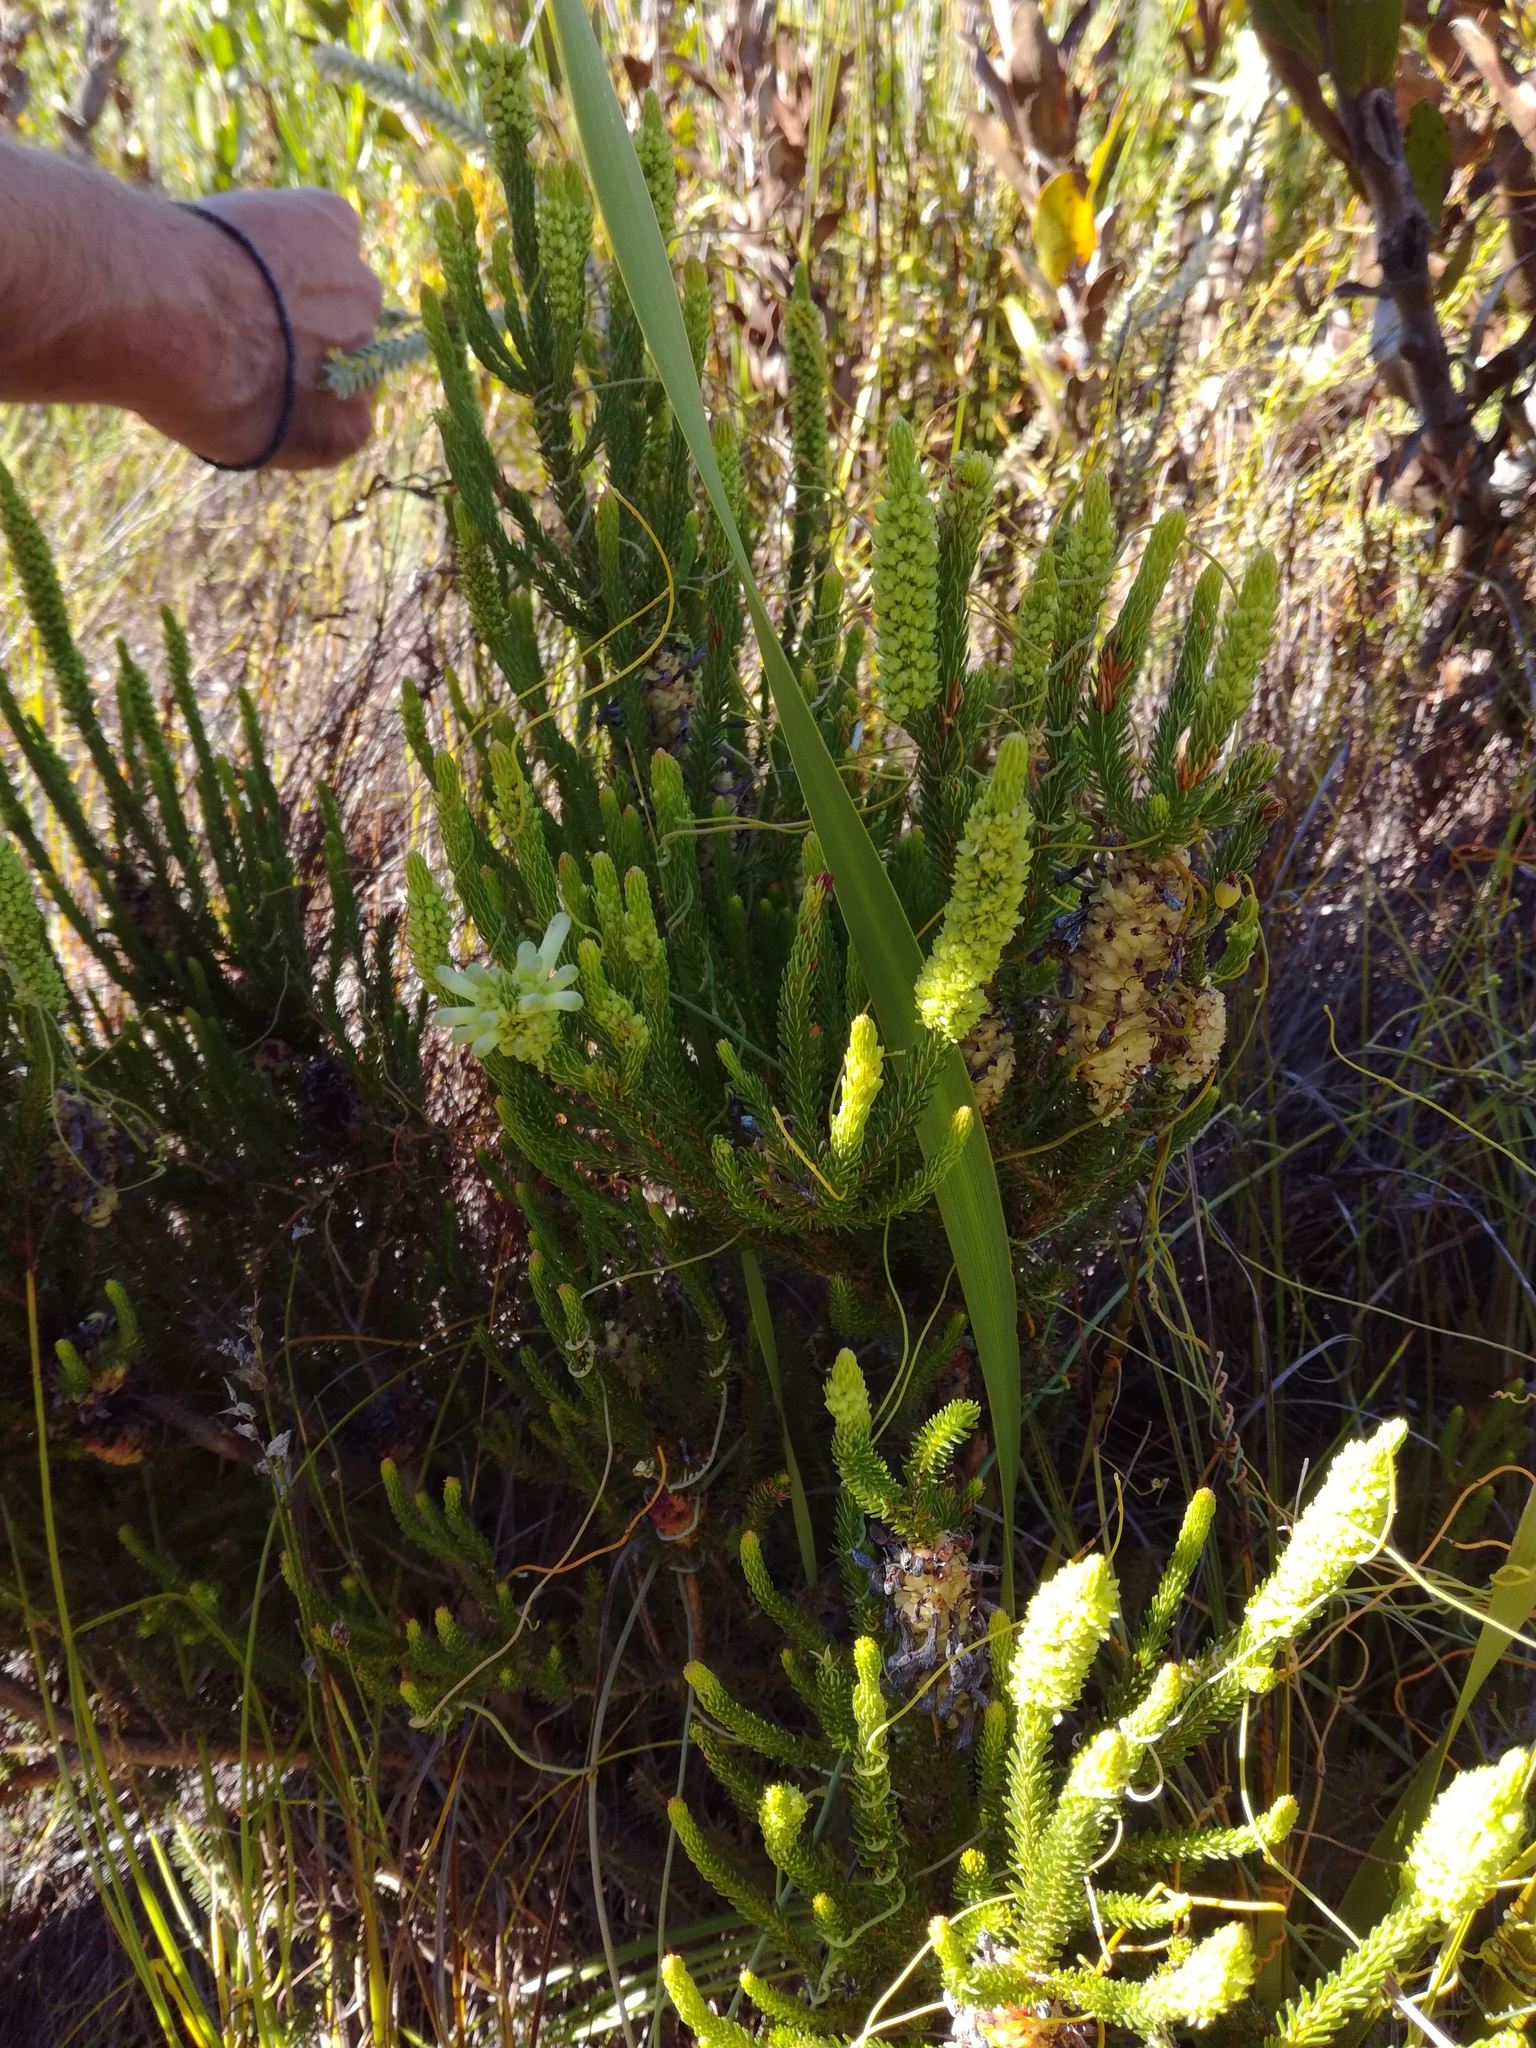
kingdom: Plantae
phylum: Tracheophyta
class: Magnoliopsida
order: Ericales
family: Ericaceae
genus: Erica
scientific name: Erica sessiliflora
